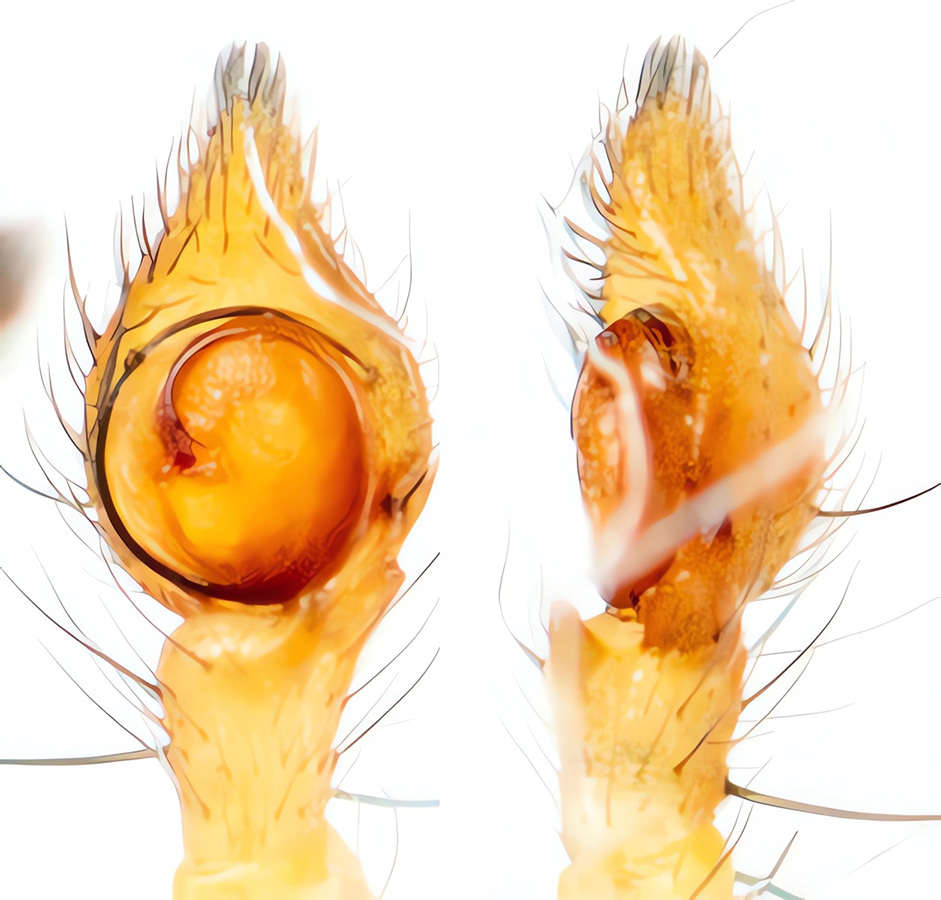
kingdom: Animalia
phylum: Arthropoda
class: Arachnida
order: Araneae
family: Thomisidae
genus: Diaea
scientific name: Diaea suspiciosa
